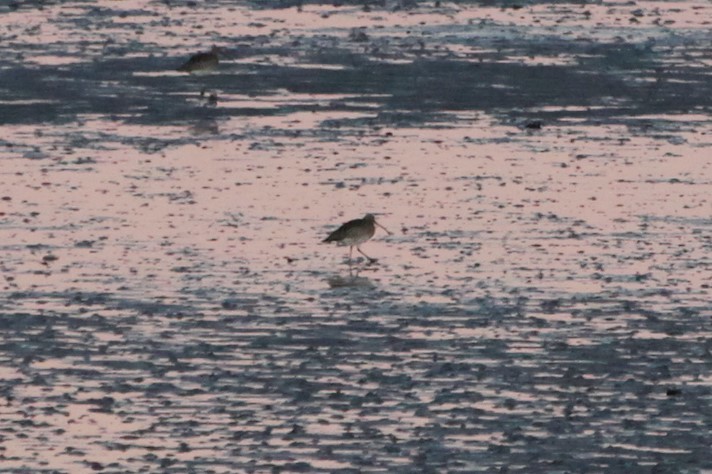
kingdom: Animalia
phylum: Chordata
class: Aves
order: Charadriiformes
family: Scolopacidae
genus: Numenius
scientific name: Numenius arquata
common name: Eurasian curlew
